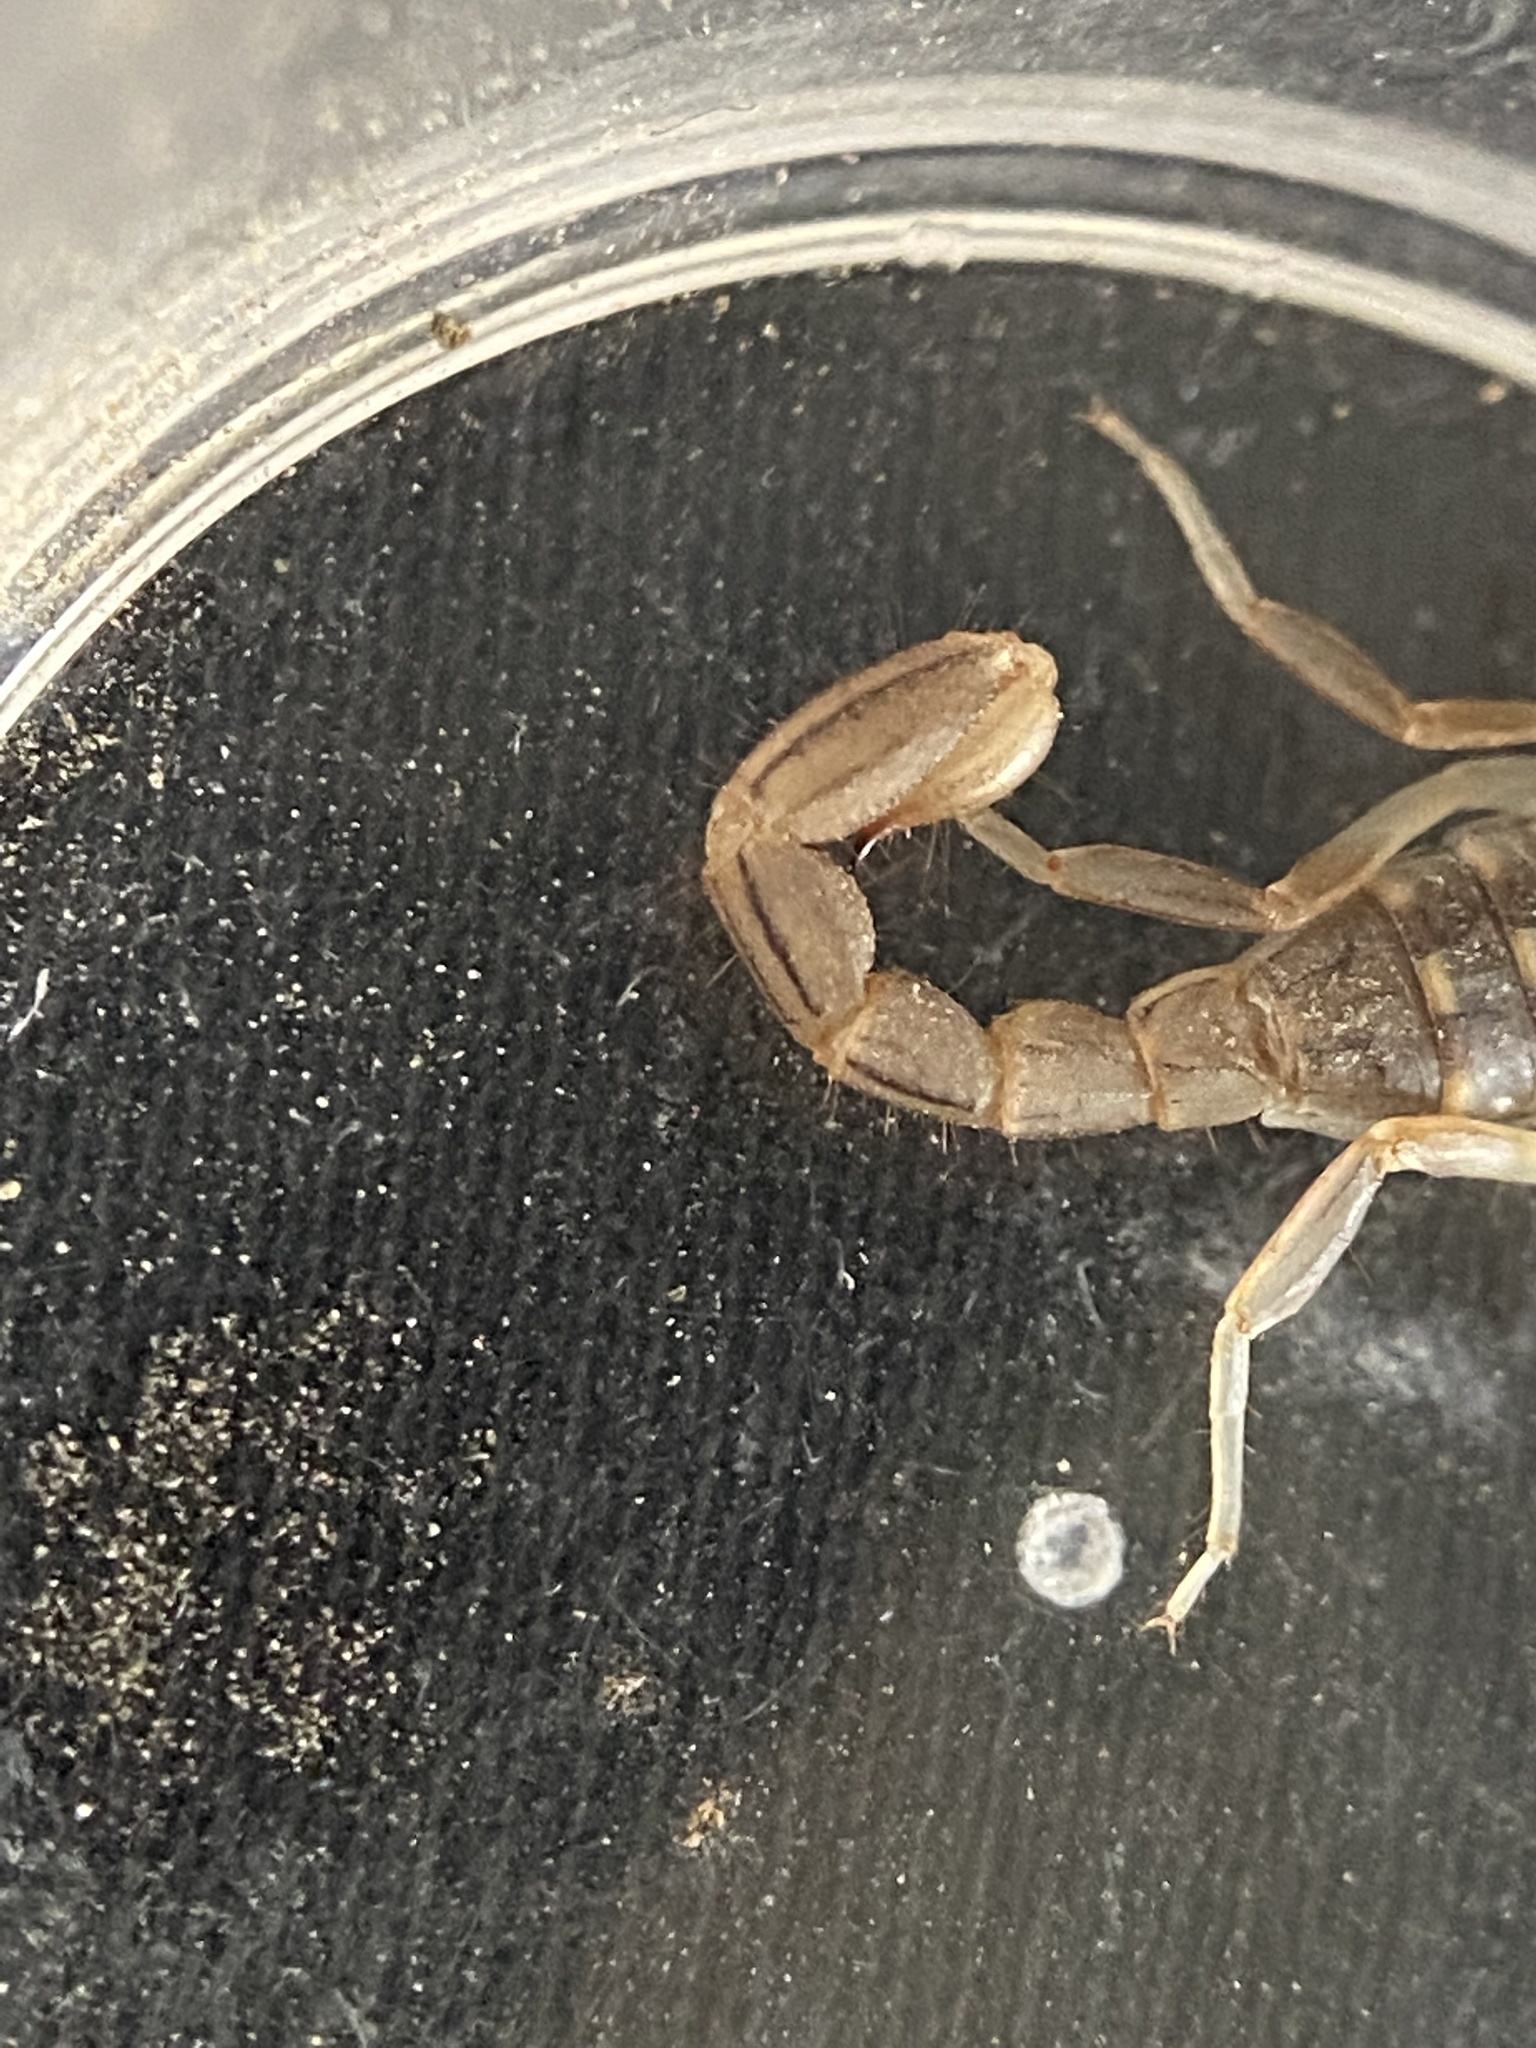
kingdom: Animalia
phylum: Arthropoda
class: Arachnida
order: Scorpiones
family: Vaejovidae
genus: Paravaejovis
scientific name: Paravaejovis spinigerus
